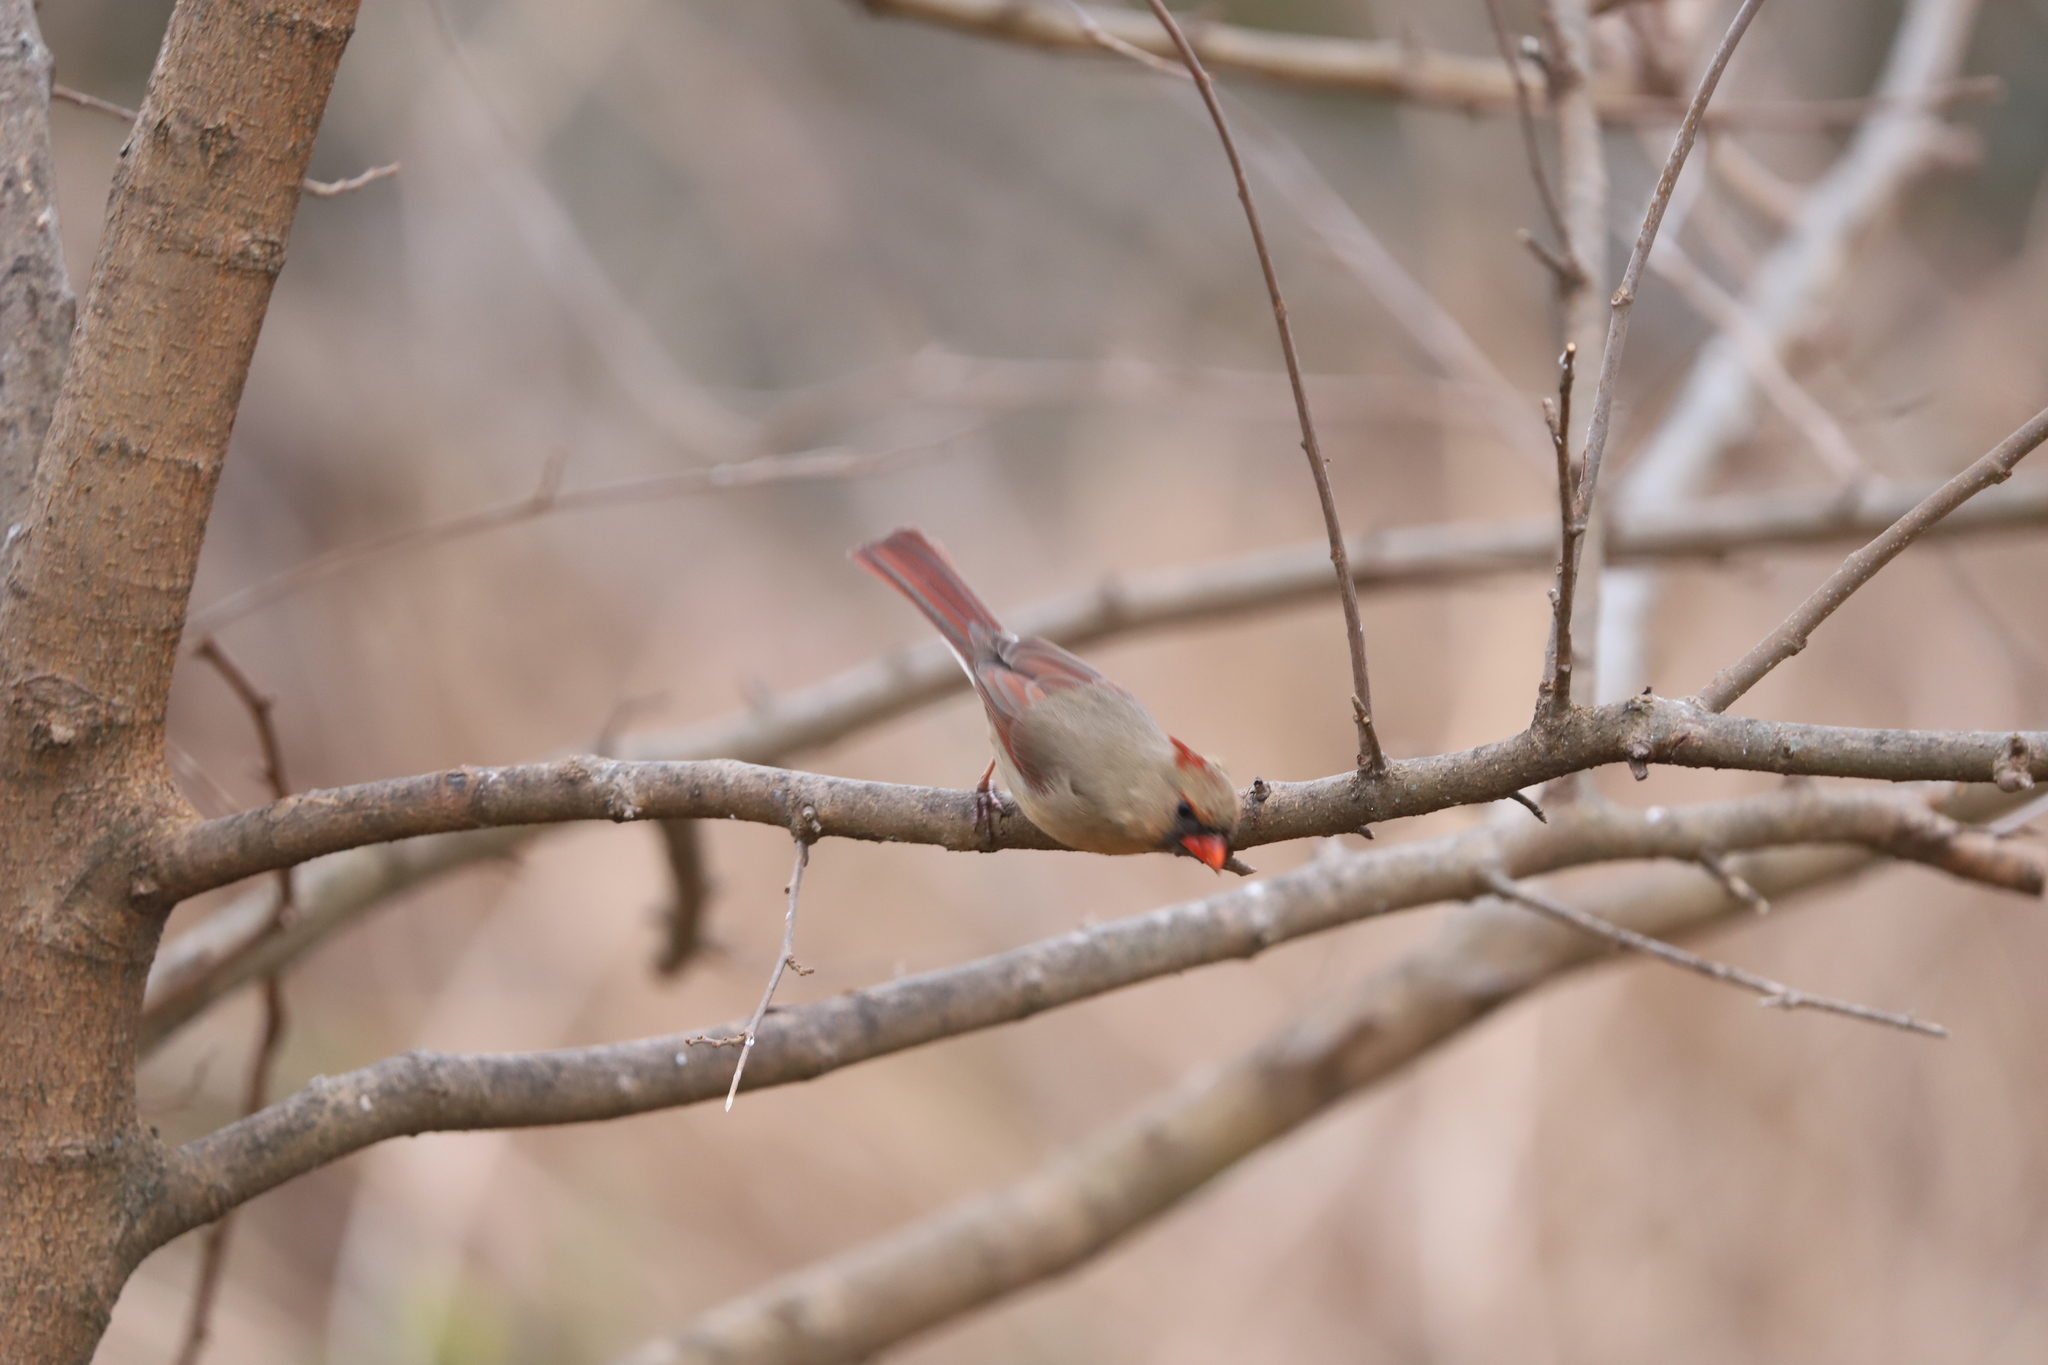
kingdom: Animalia
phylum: Chordata
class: Aves
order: Passeriformes
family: Cardinalidae
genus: Cardinalis
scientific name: Cardinalis cardinalis
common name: Northern cardinal
